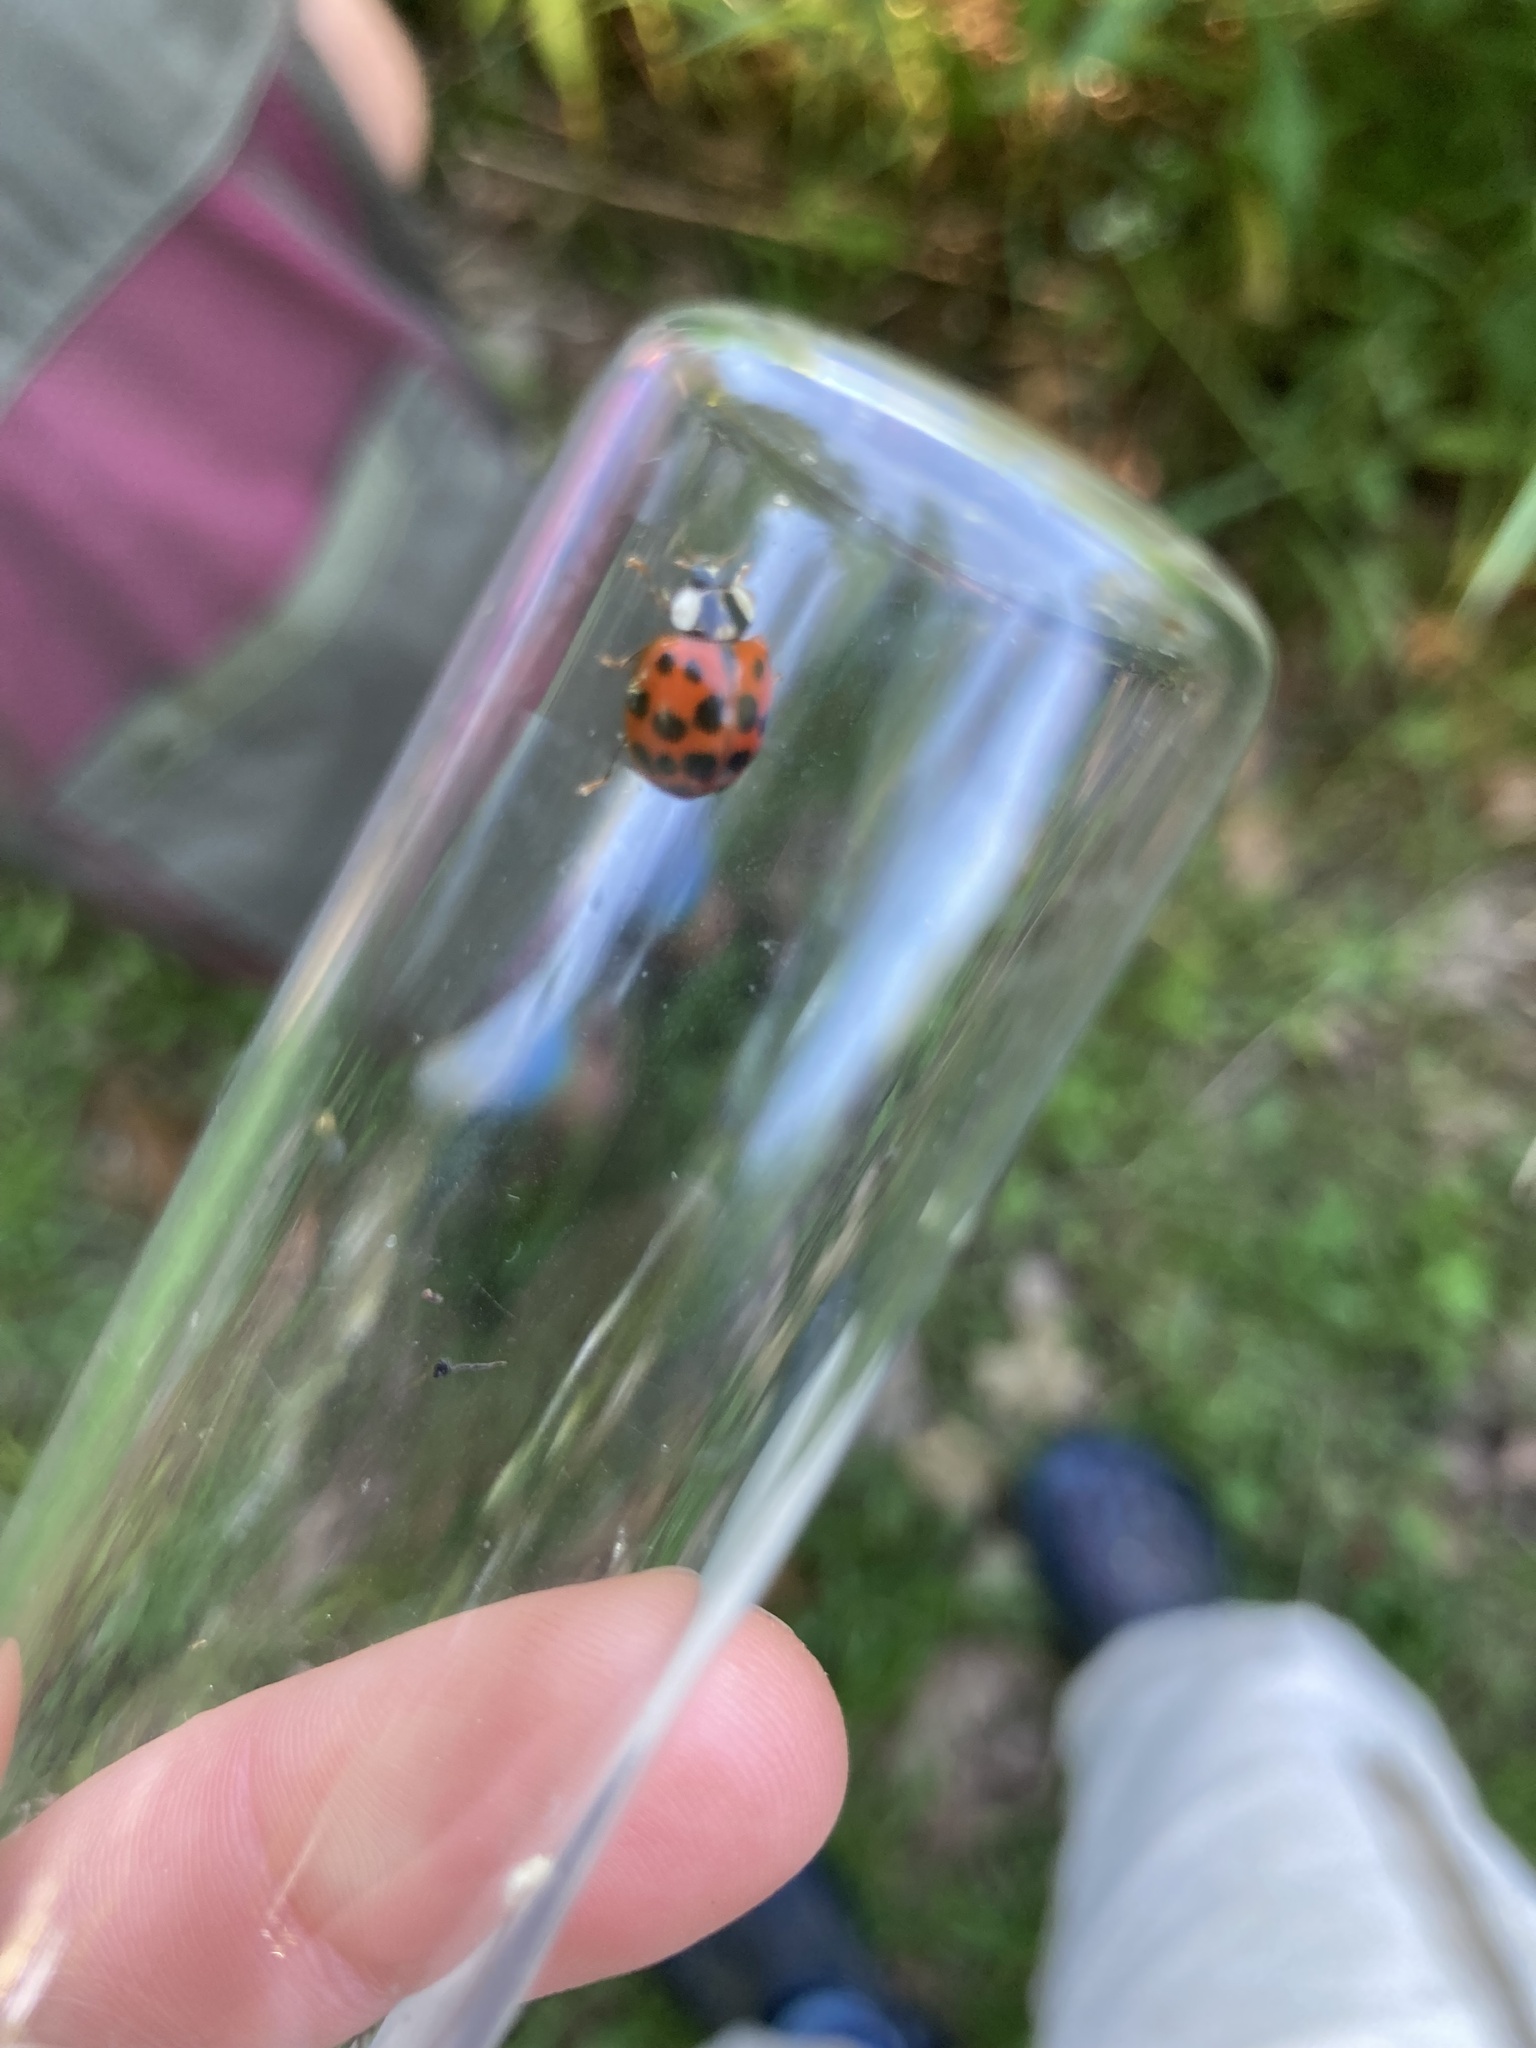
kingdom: Animalia
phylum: Arthropoda
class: Insecta
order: Coleoptera
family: Coccinellidae
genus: Harmonia
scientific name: Harmonia axyridis
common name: Harlequin ladybird
